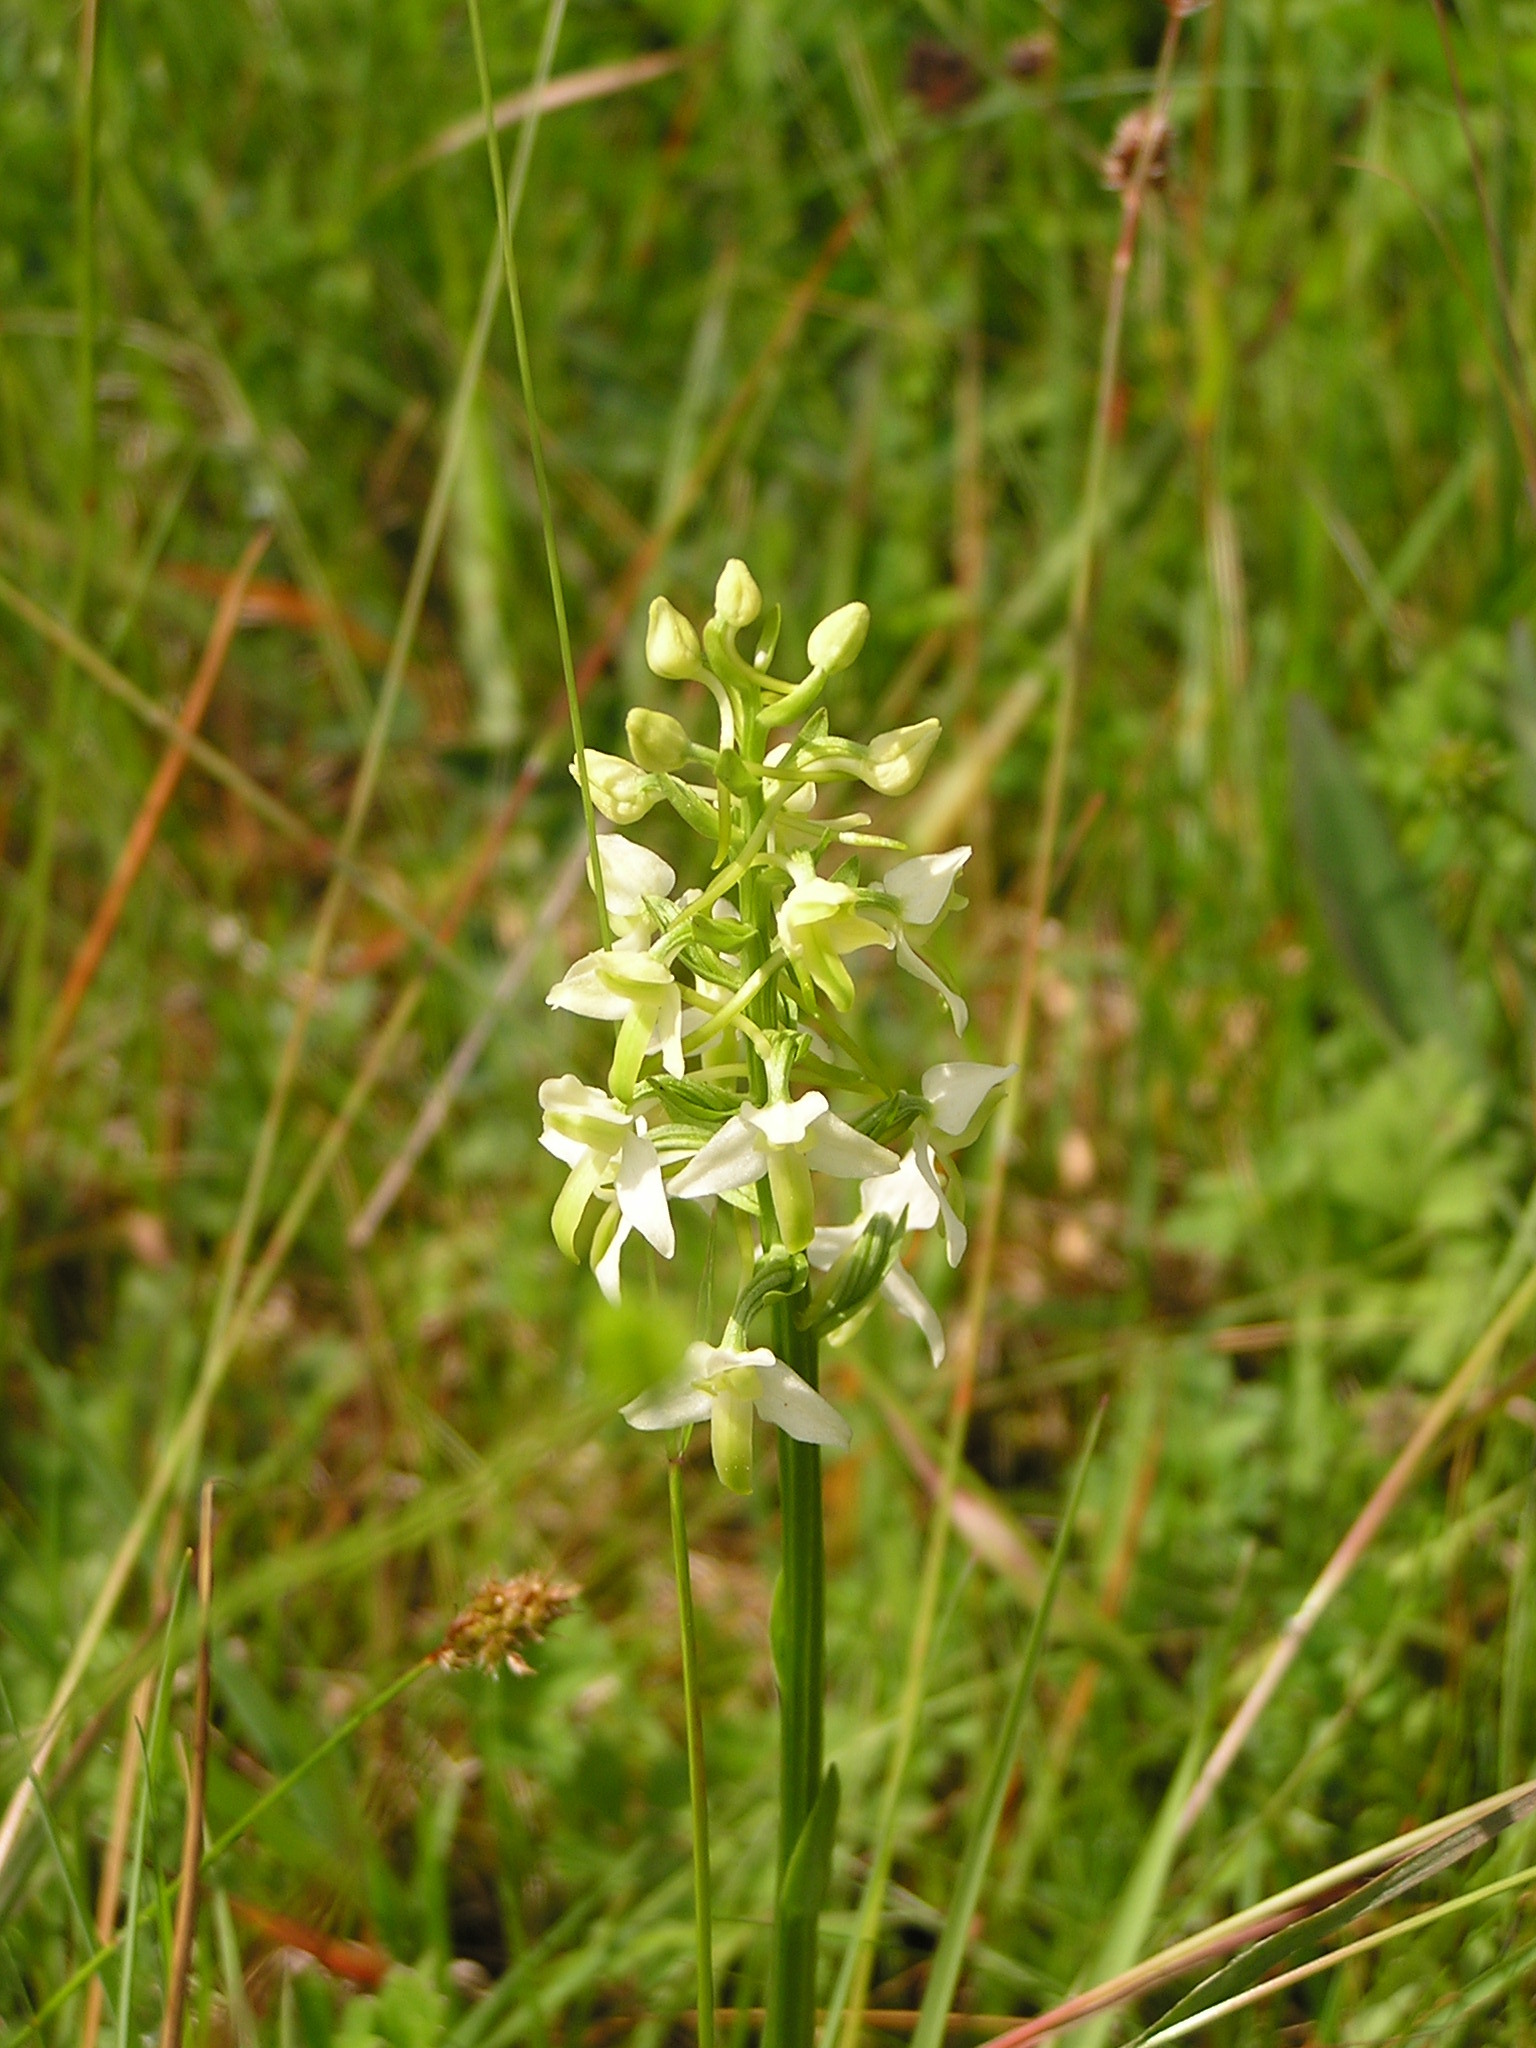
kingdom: Plantae
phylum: Tracheophyta
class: Liliopsida
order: Asparagales
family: Orchidaceae
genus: Platanthera
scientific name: Platanthera bifolia
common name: Lesser butterfly-orchid
